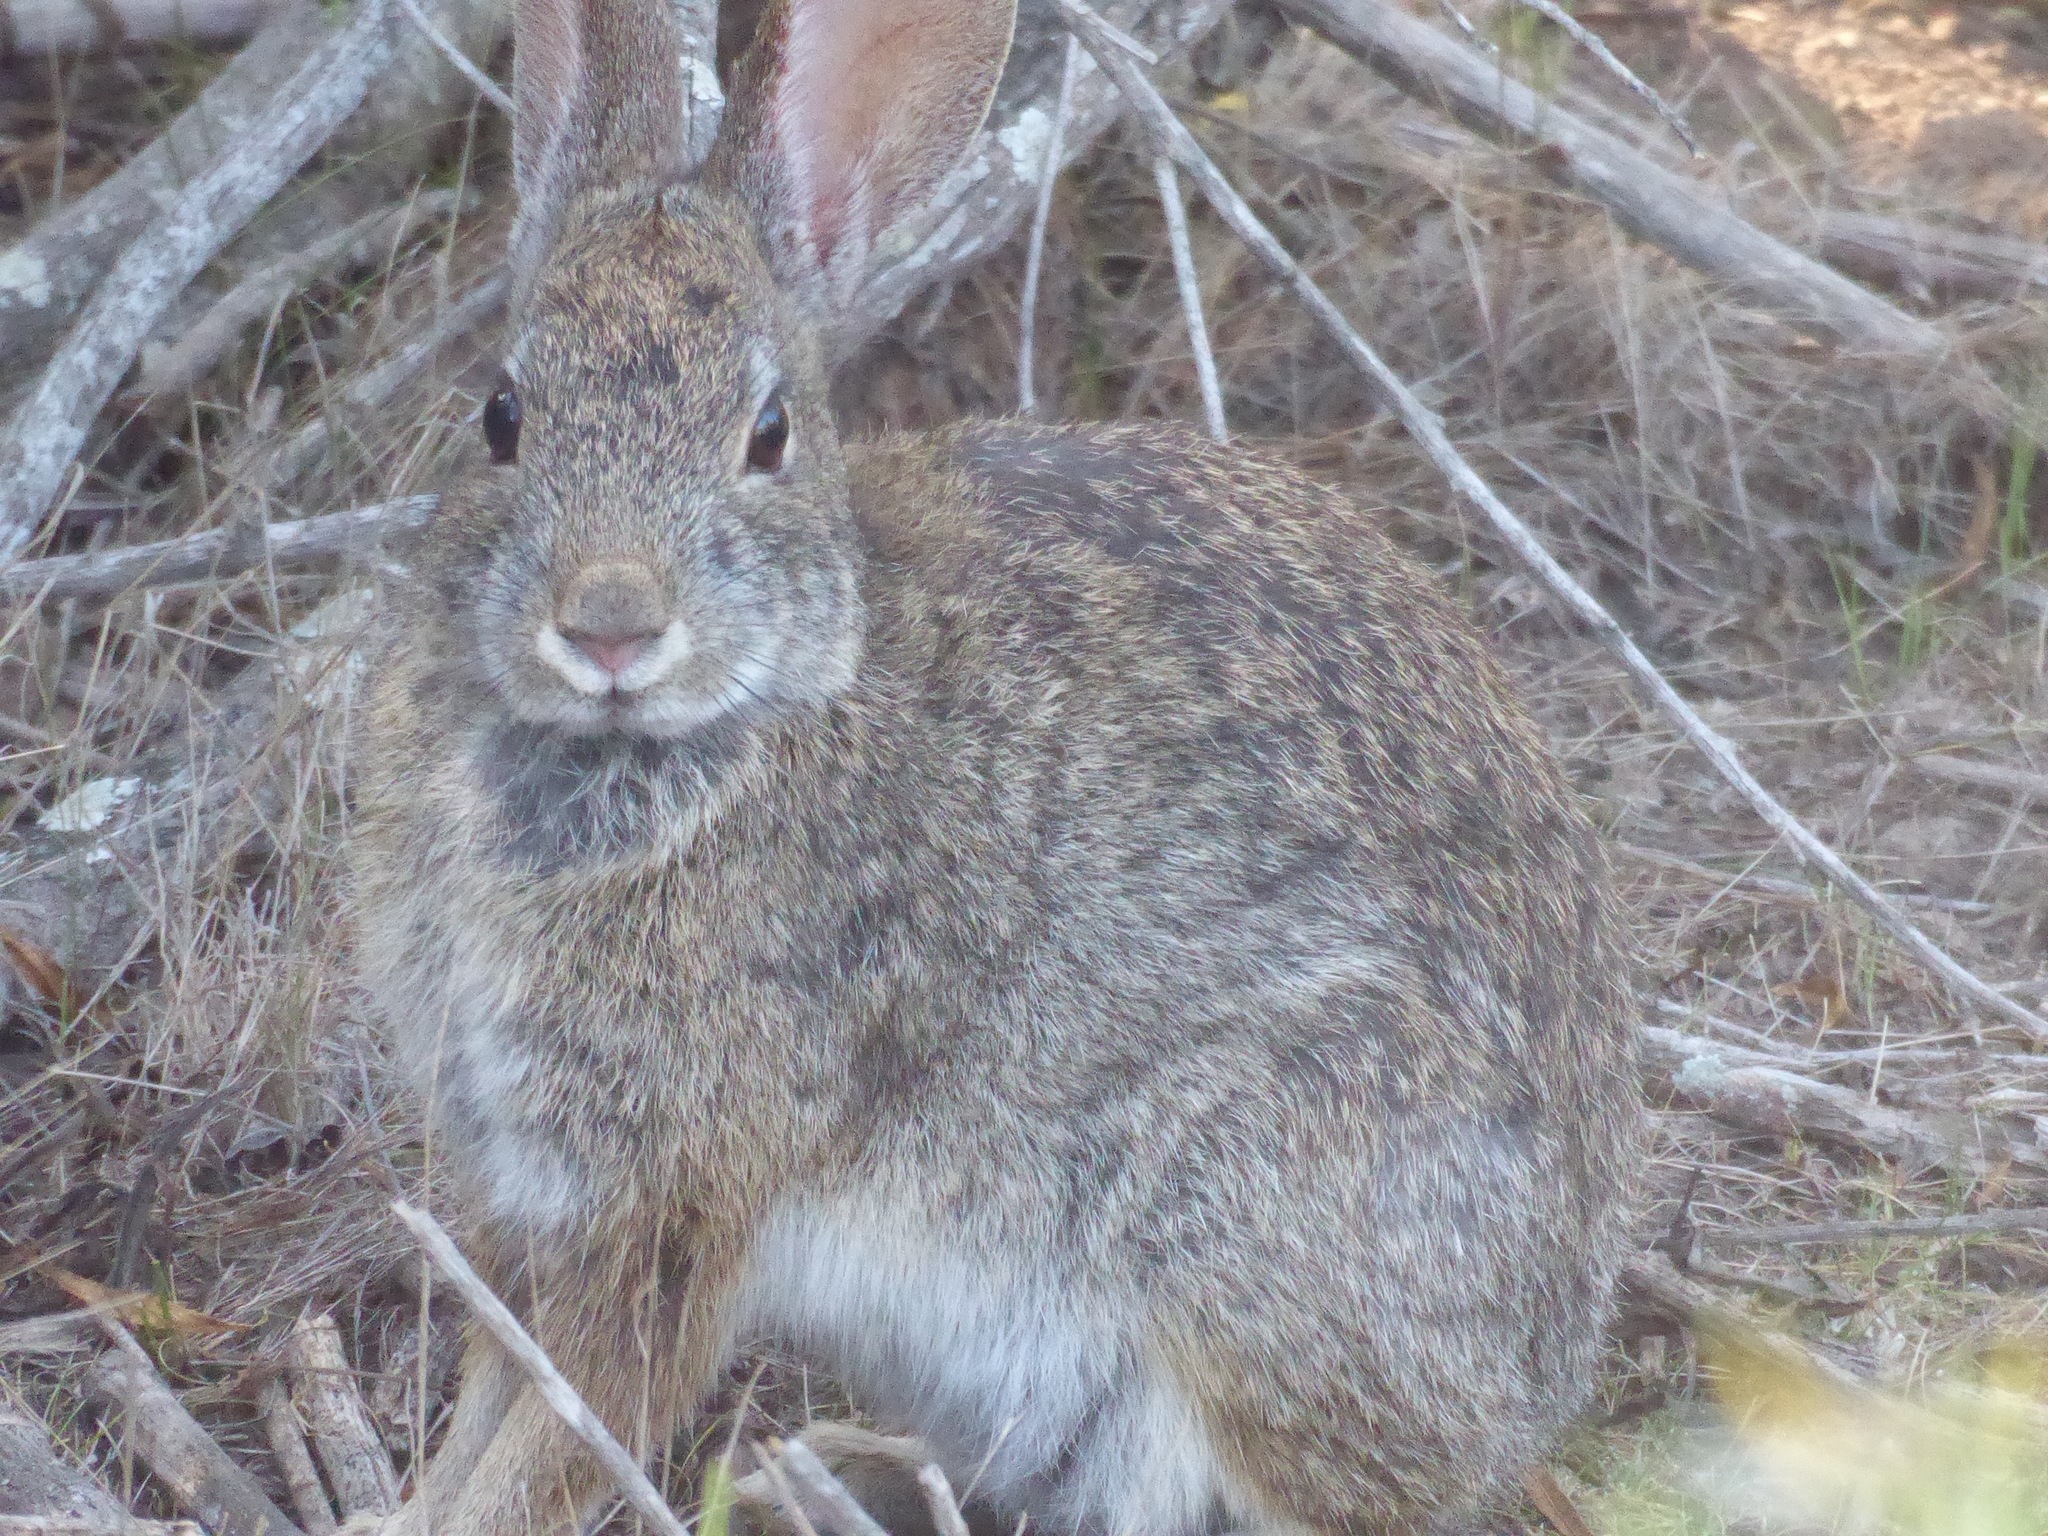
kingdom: Animalia
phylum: Chordata
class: Mammalia
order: Lagomorpha
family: Leporidae
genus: Sylvilagus
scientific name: Sylvilagus bachmani
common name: Brush rabbit
